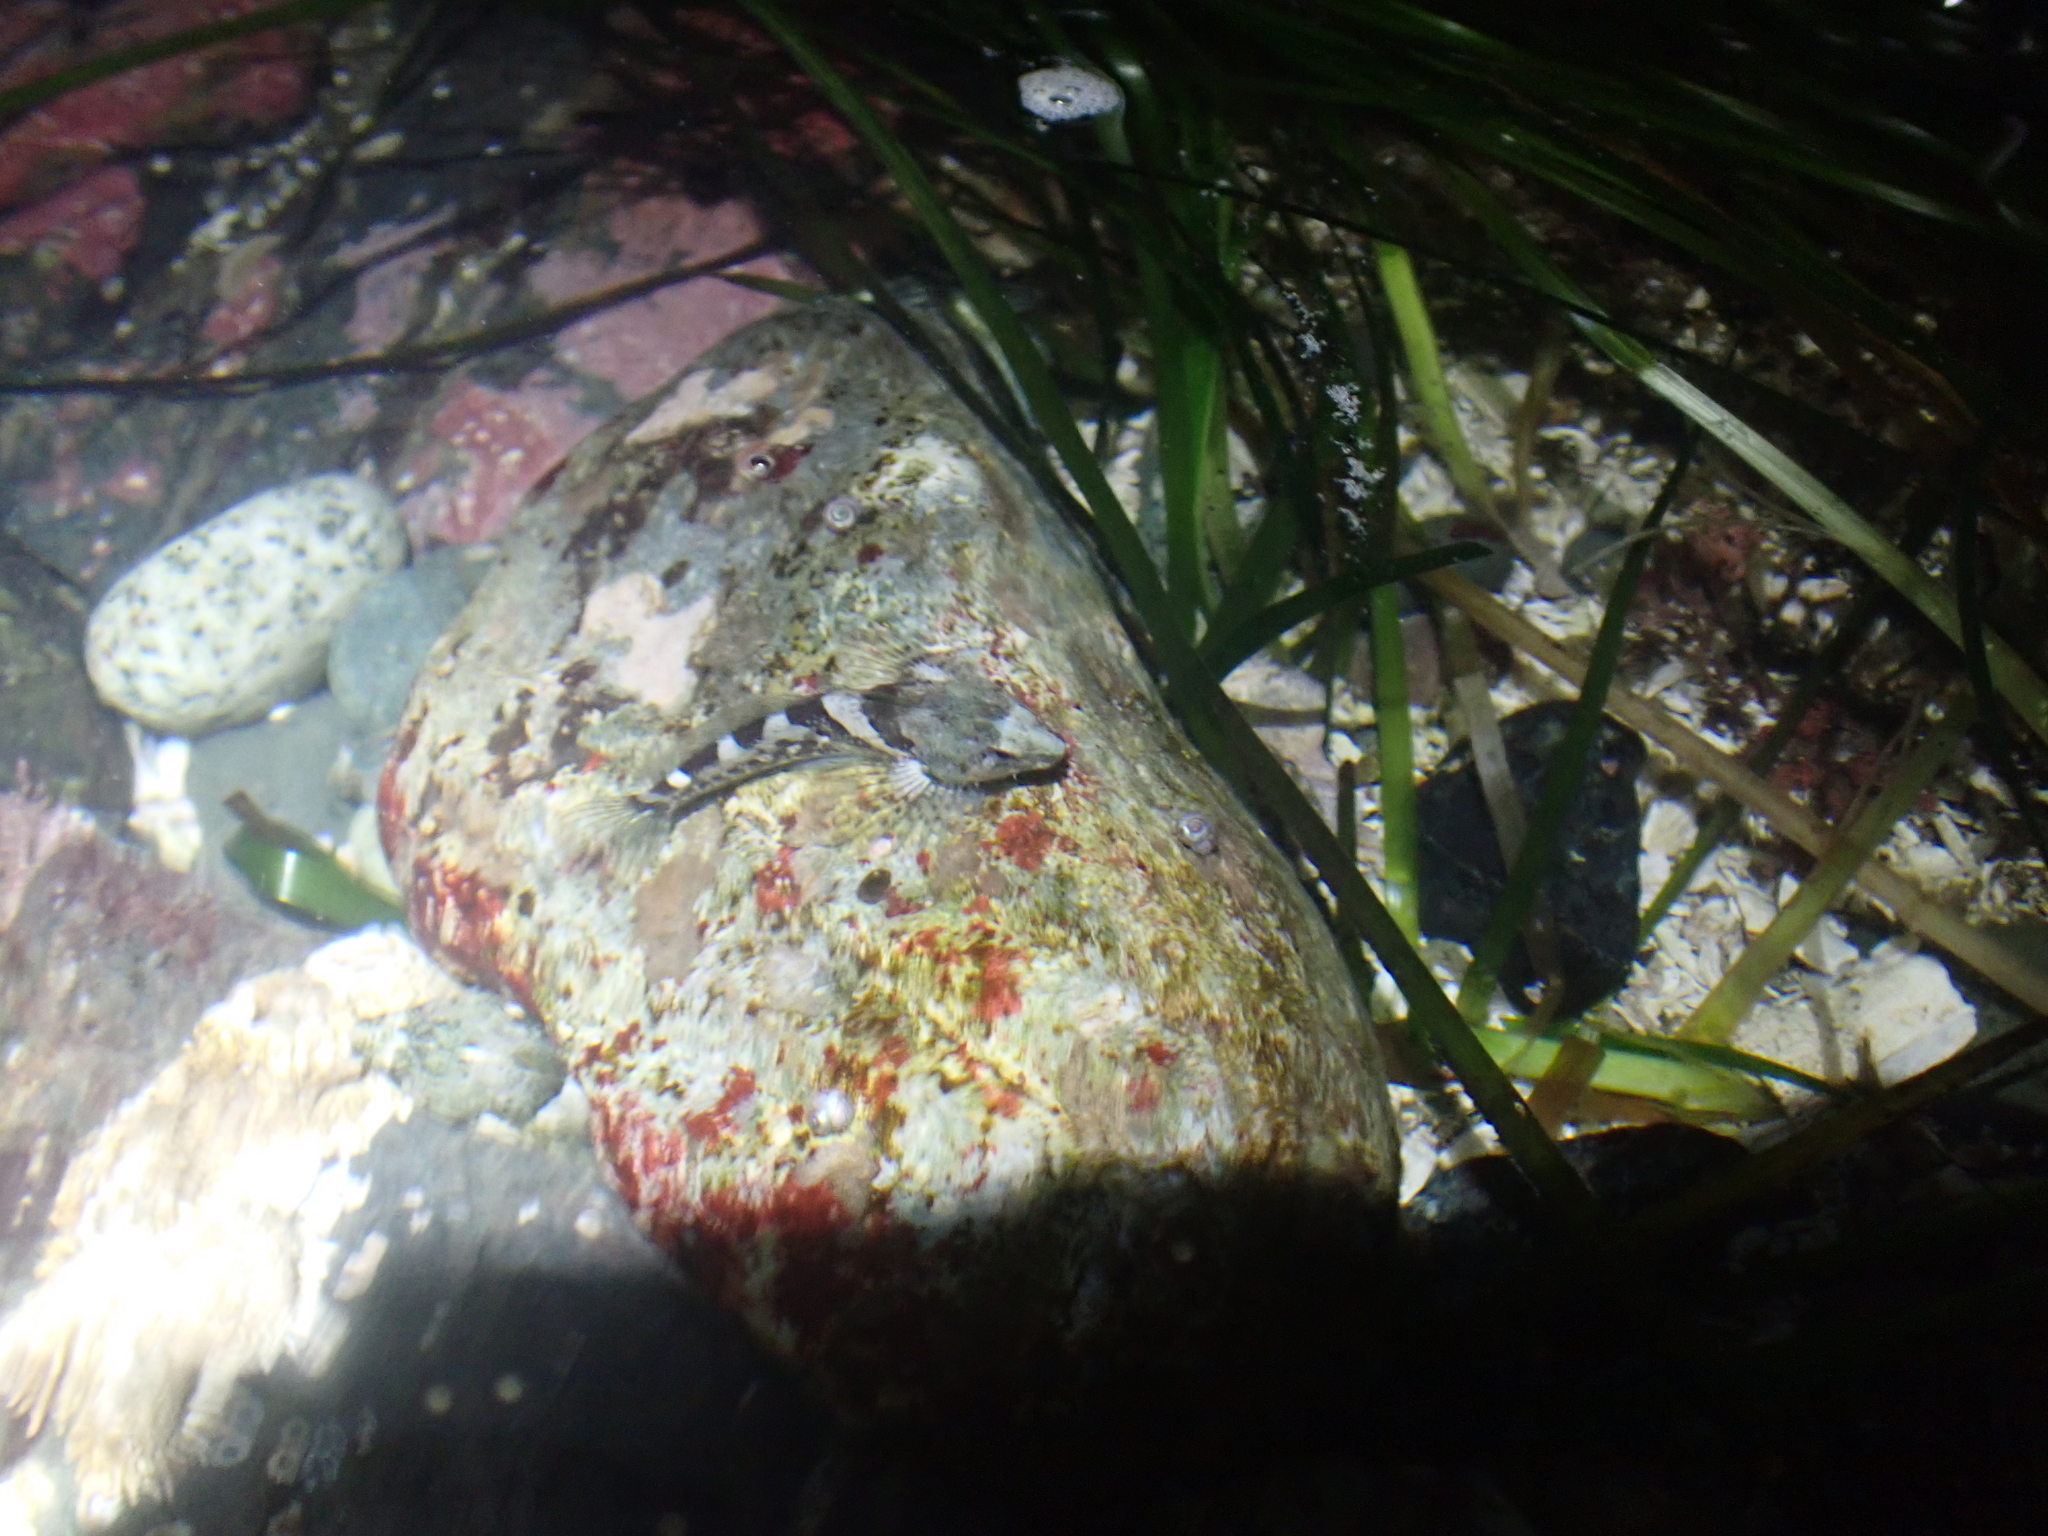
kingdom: Animalia
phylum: Chordata
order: Scorpaeniformes
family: Cottidae
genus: Oligocottus
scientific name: Oligocottus maculosus
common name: Tidepool sculpin
